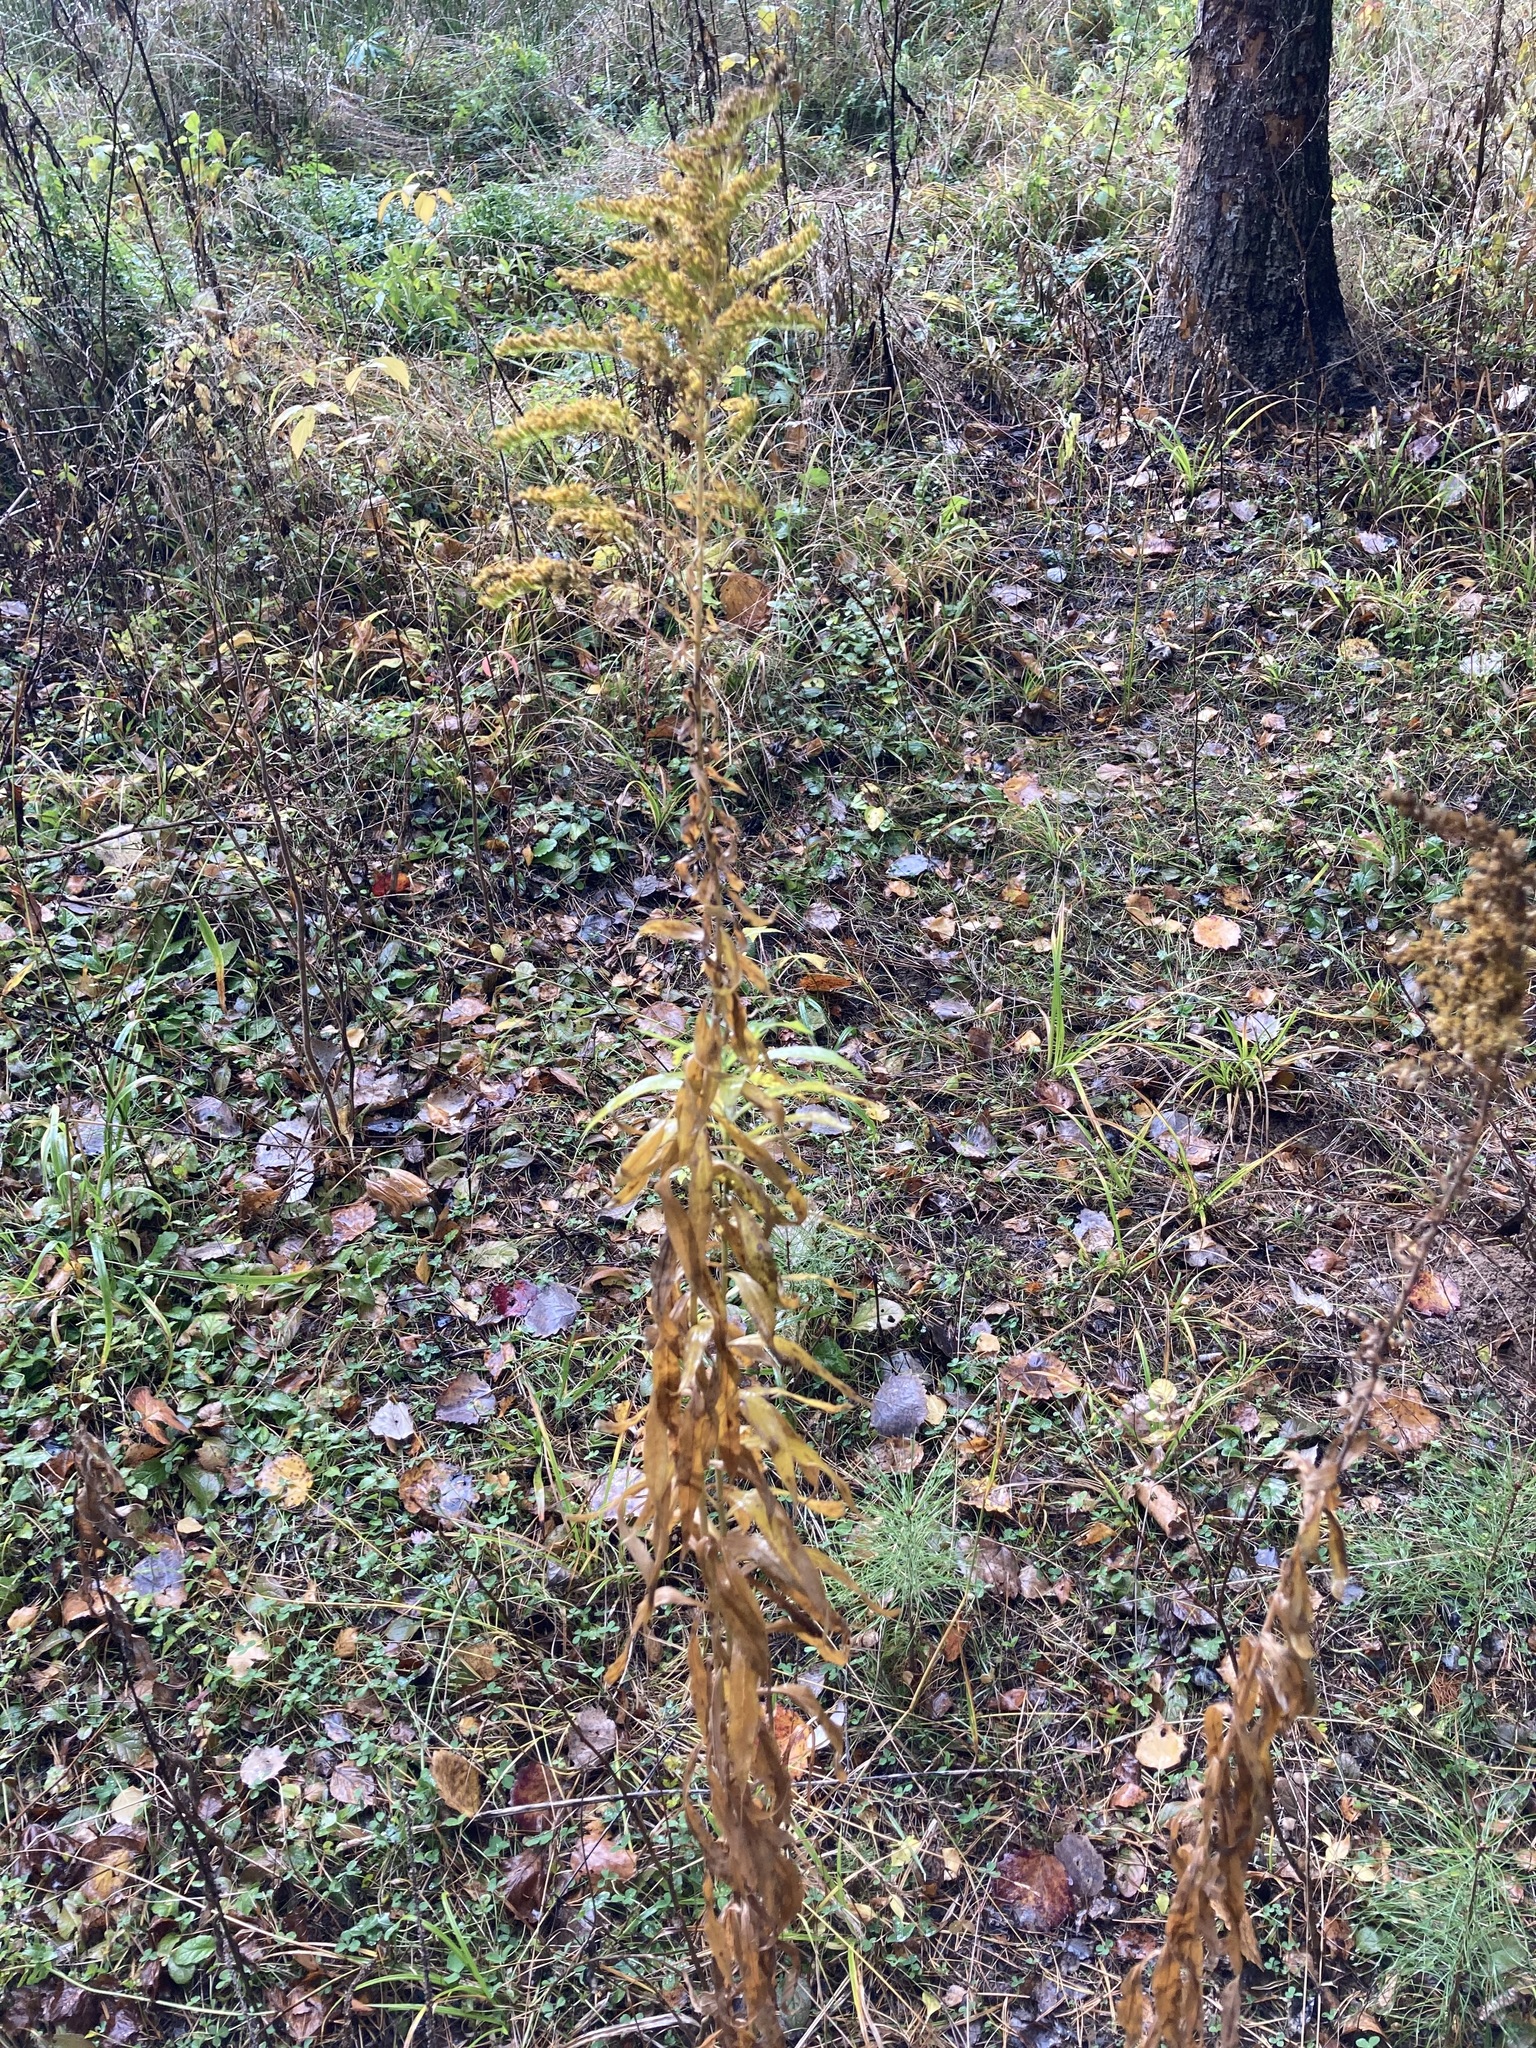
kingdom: Plantae
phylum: Tracheophyta
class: Magnoliopsida
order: Asterales
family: Asteraceae
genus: Solidago
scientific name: Solidago canadensis
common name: Canada goldenrod
